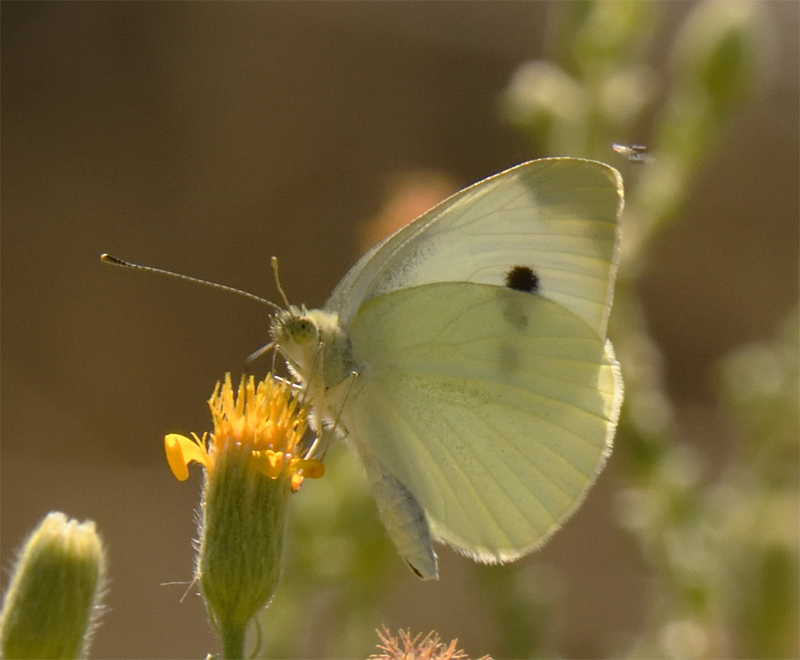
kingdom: Animalia
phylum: Arthropoda
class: Insecta
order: Lepidoptera
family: Pieridae
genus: Pieris
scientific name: Pieris rapae
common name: Small white
